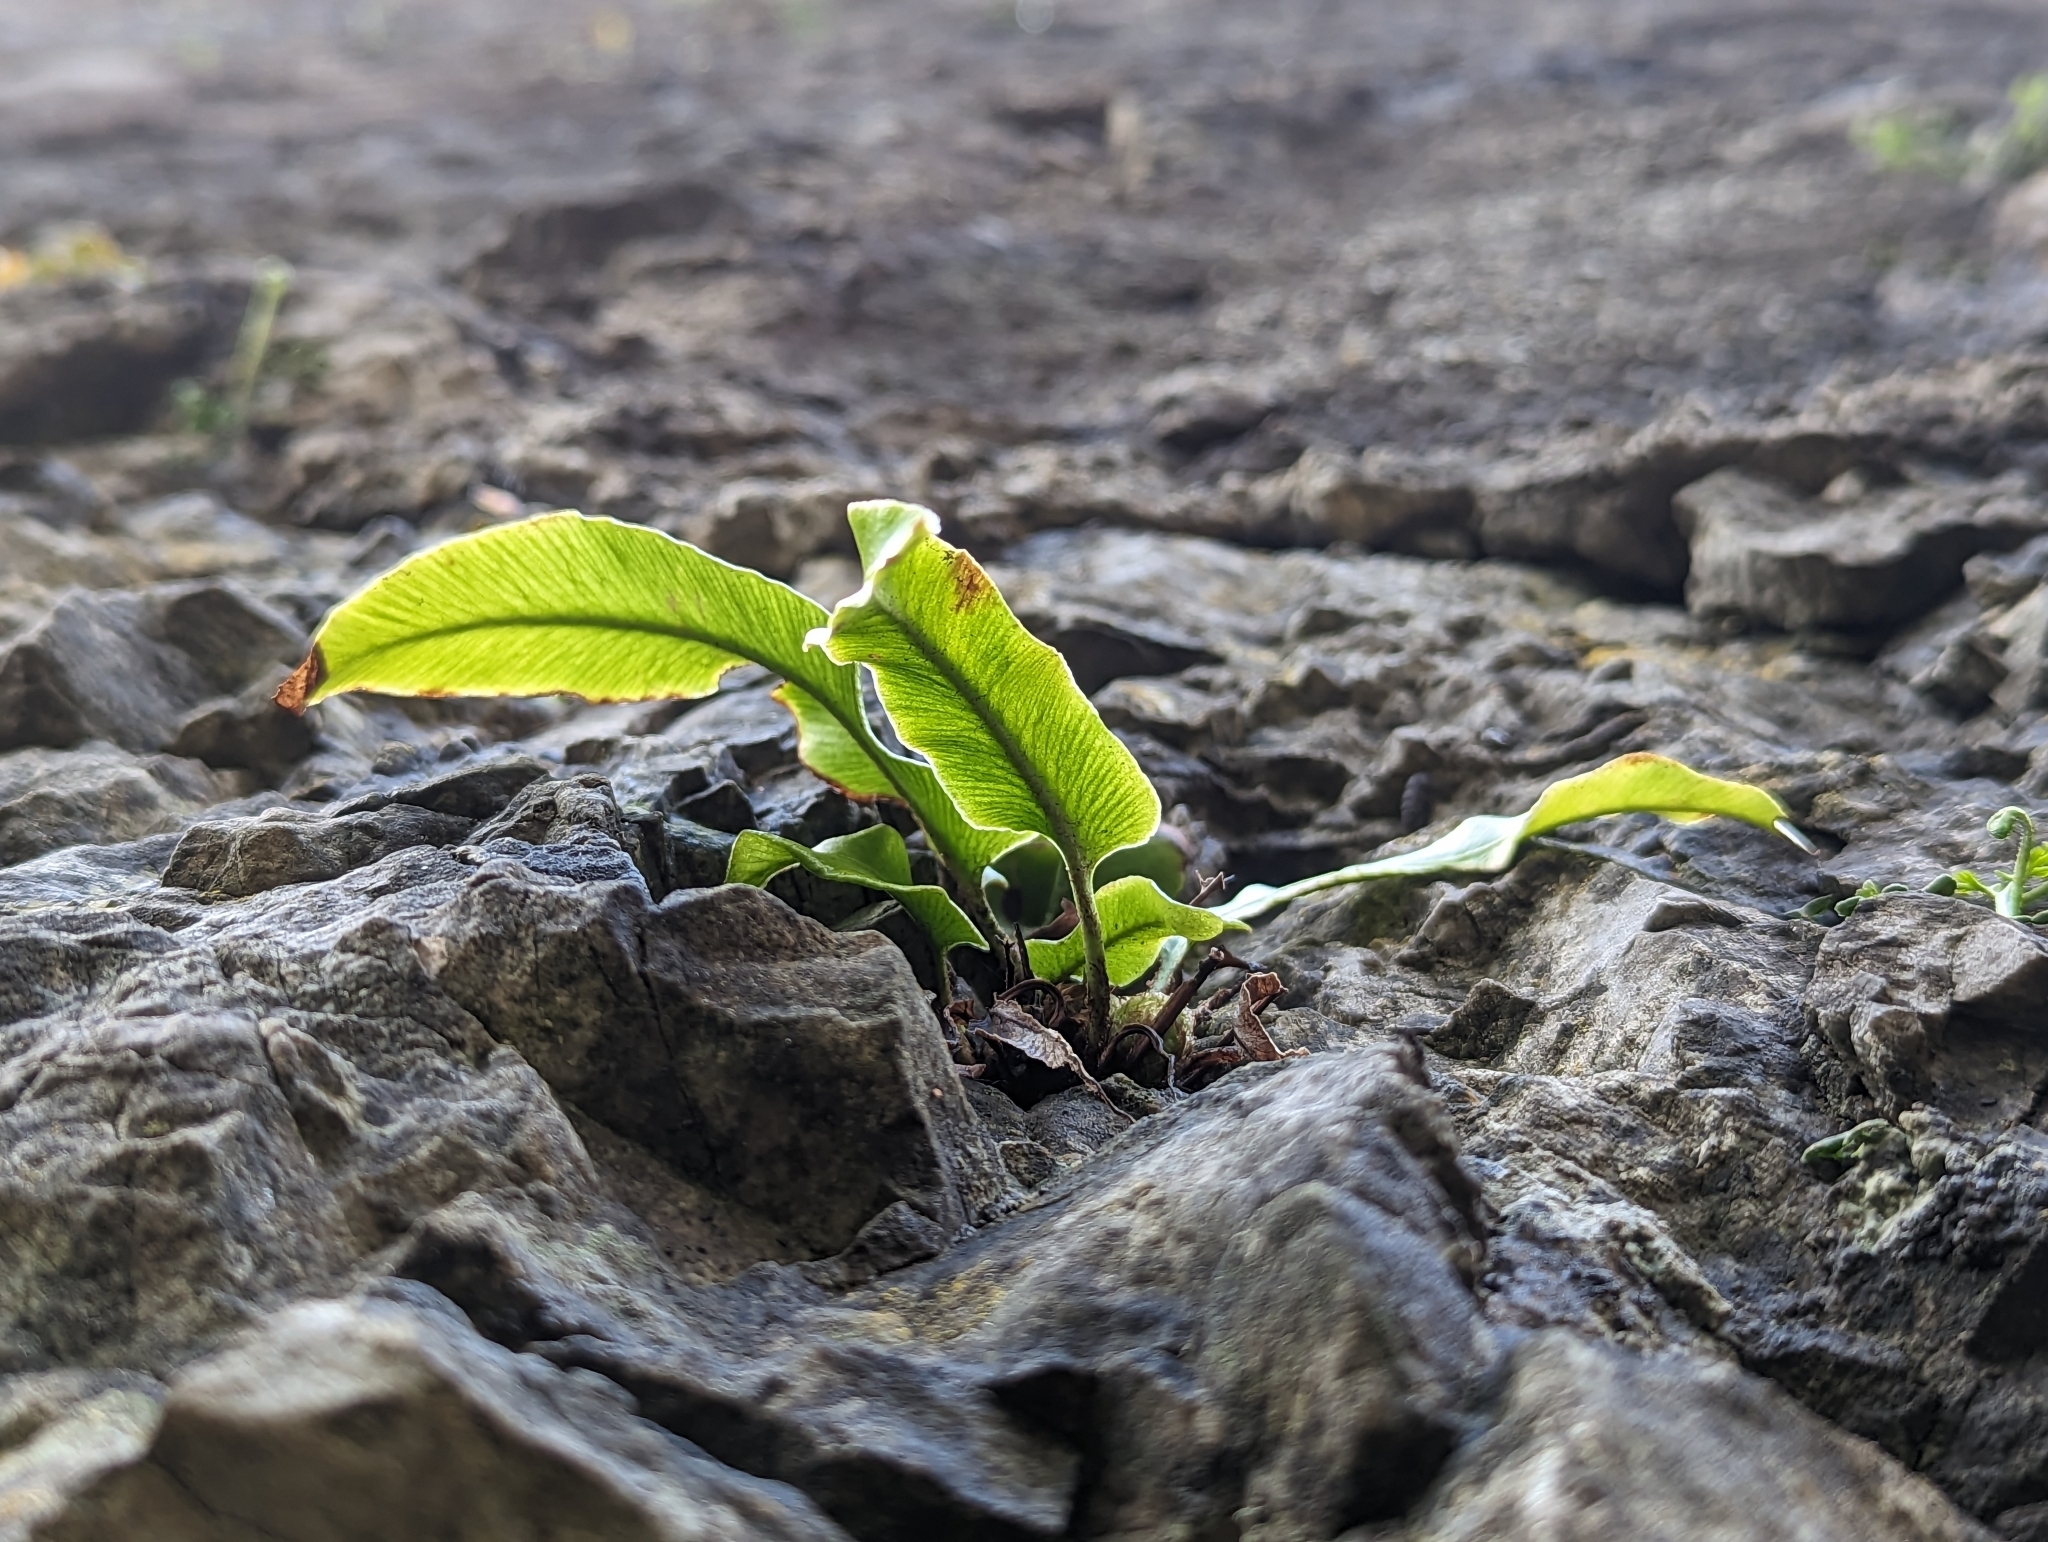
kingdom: Plantae
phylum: Tracheophyta
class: Polypodiopsida
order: Polypodiales
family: Aspleniaceae
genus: Asplenium
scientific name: Asplenium scolopendrium
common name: Hart's-tongue fern
